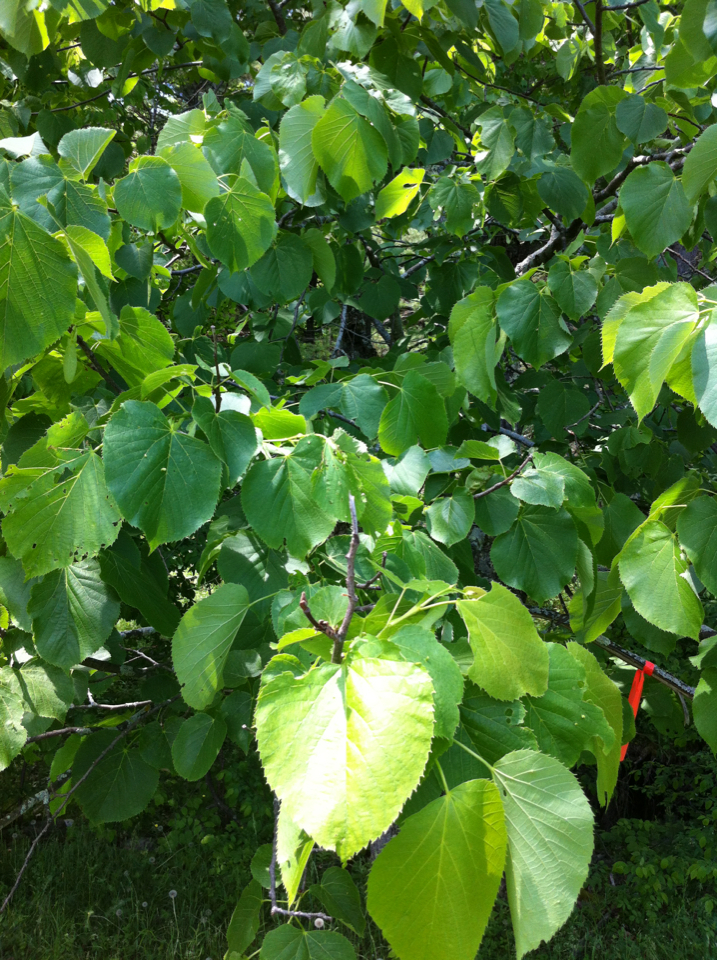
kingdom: Plantae
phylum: Tracheophyta
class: Magnoliopsida
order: Malvales
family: Malvaceae
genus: Tilia
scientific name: Tilia americana
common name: Basswood
